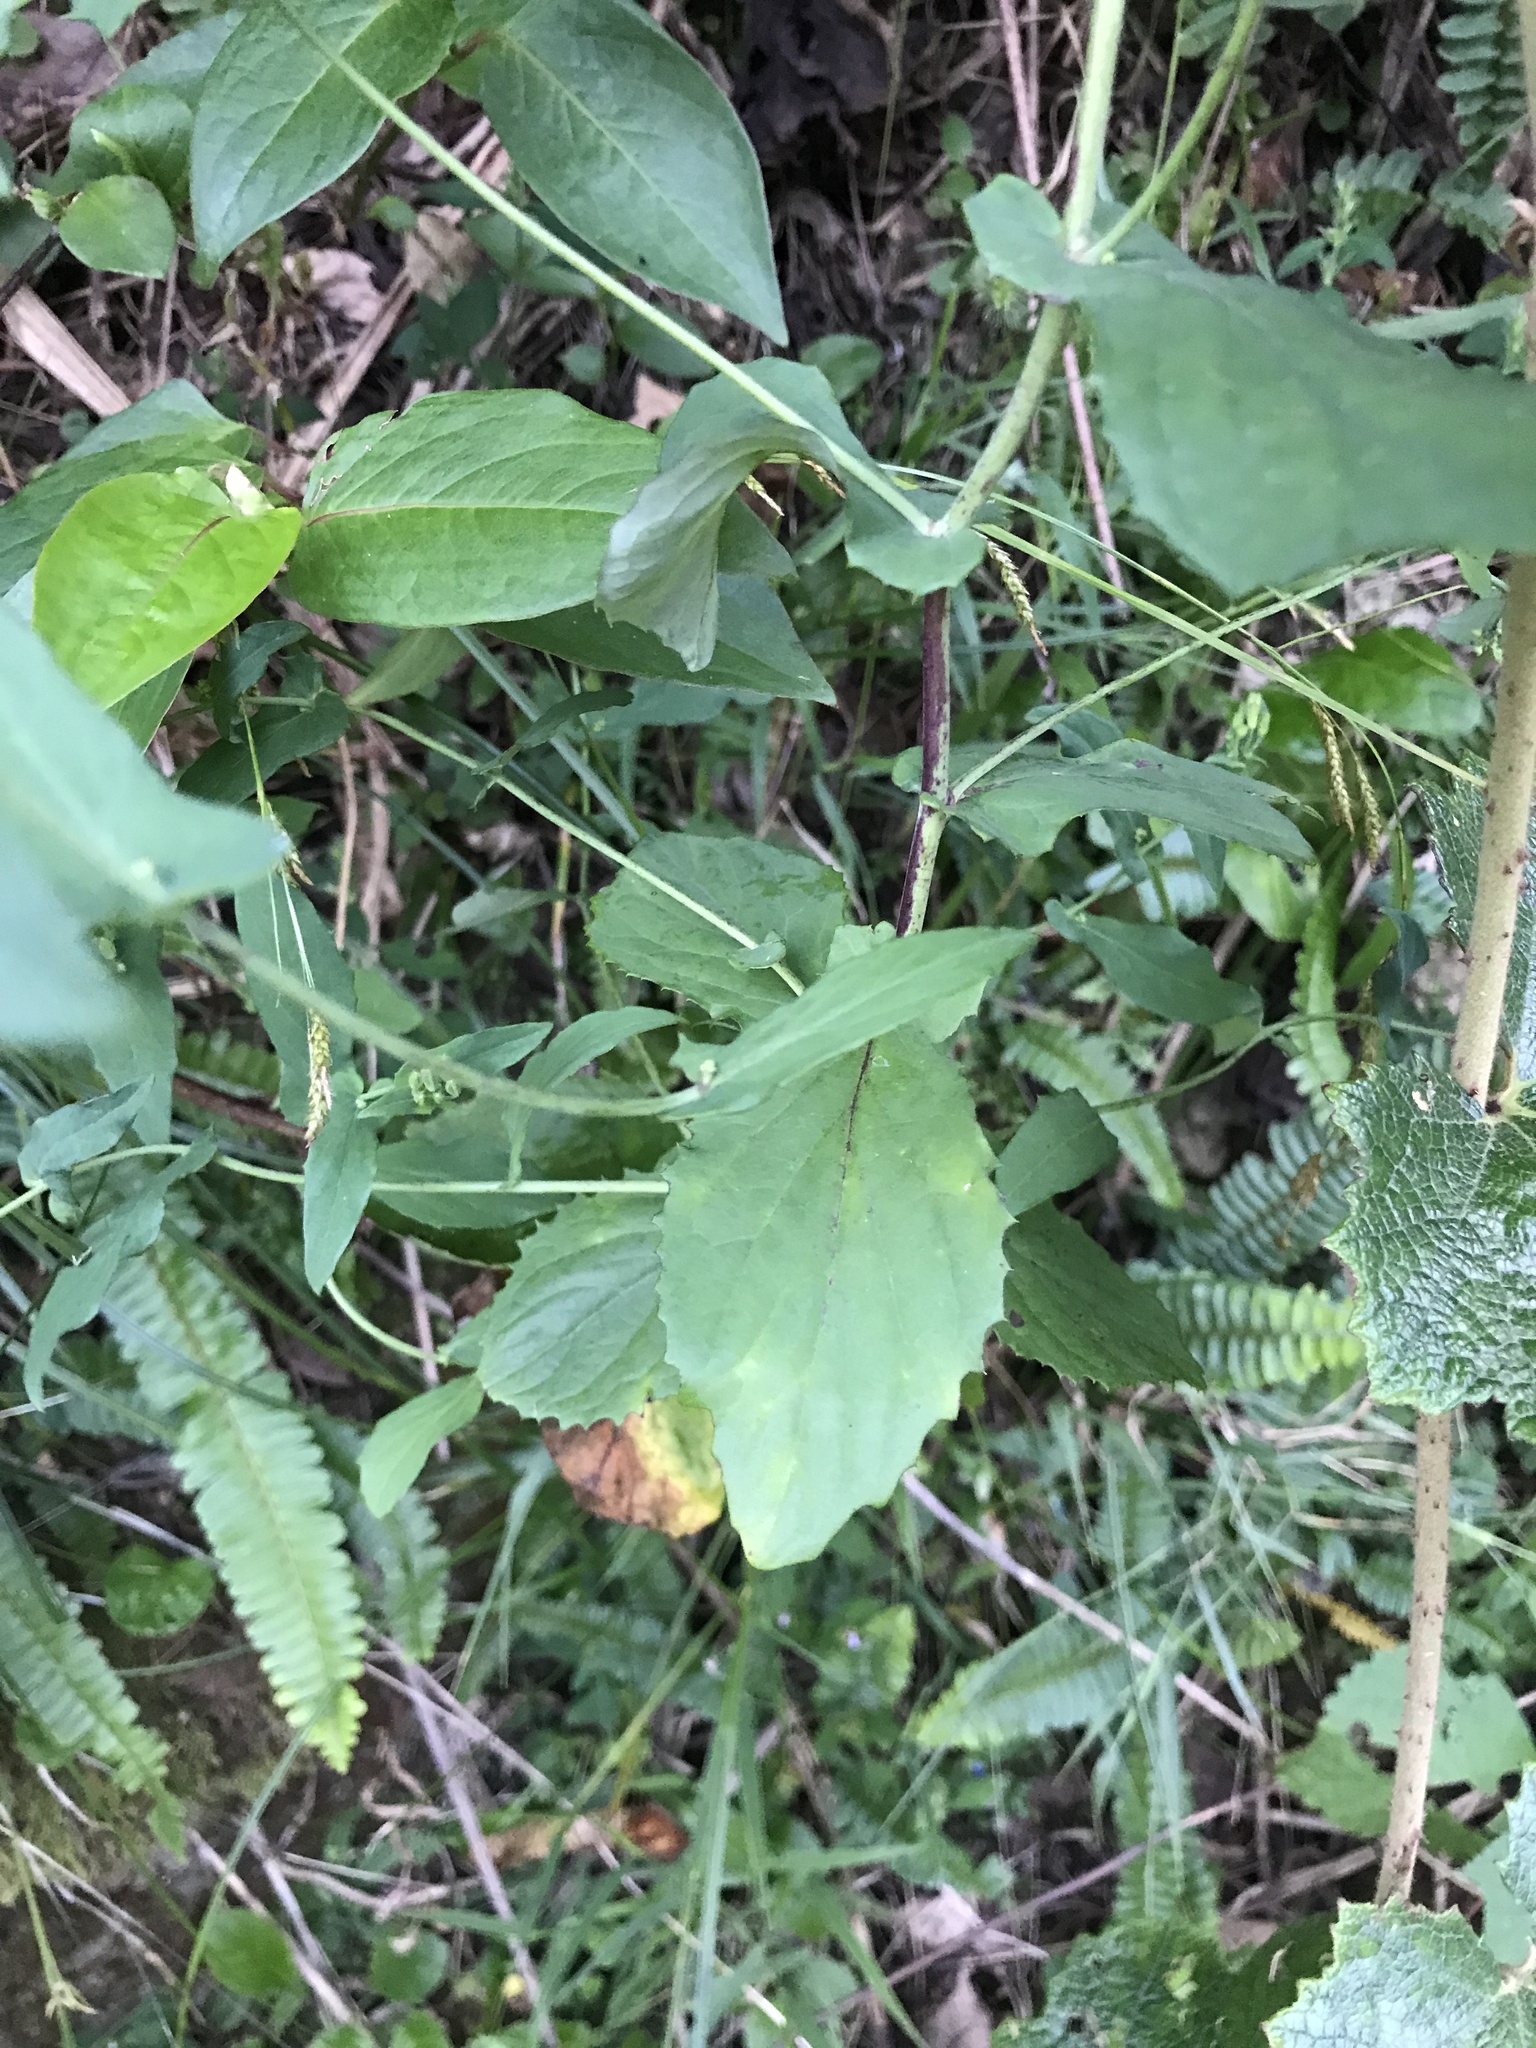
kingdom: Plantae
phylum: Tracheophyta
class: Magnoliopsida
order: Asterales
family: Asteraceae
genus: Crepidiastrum
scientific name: Crepidiastrum denticulatum
